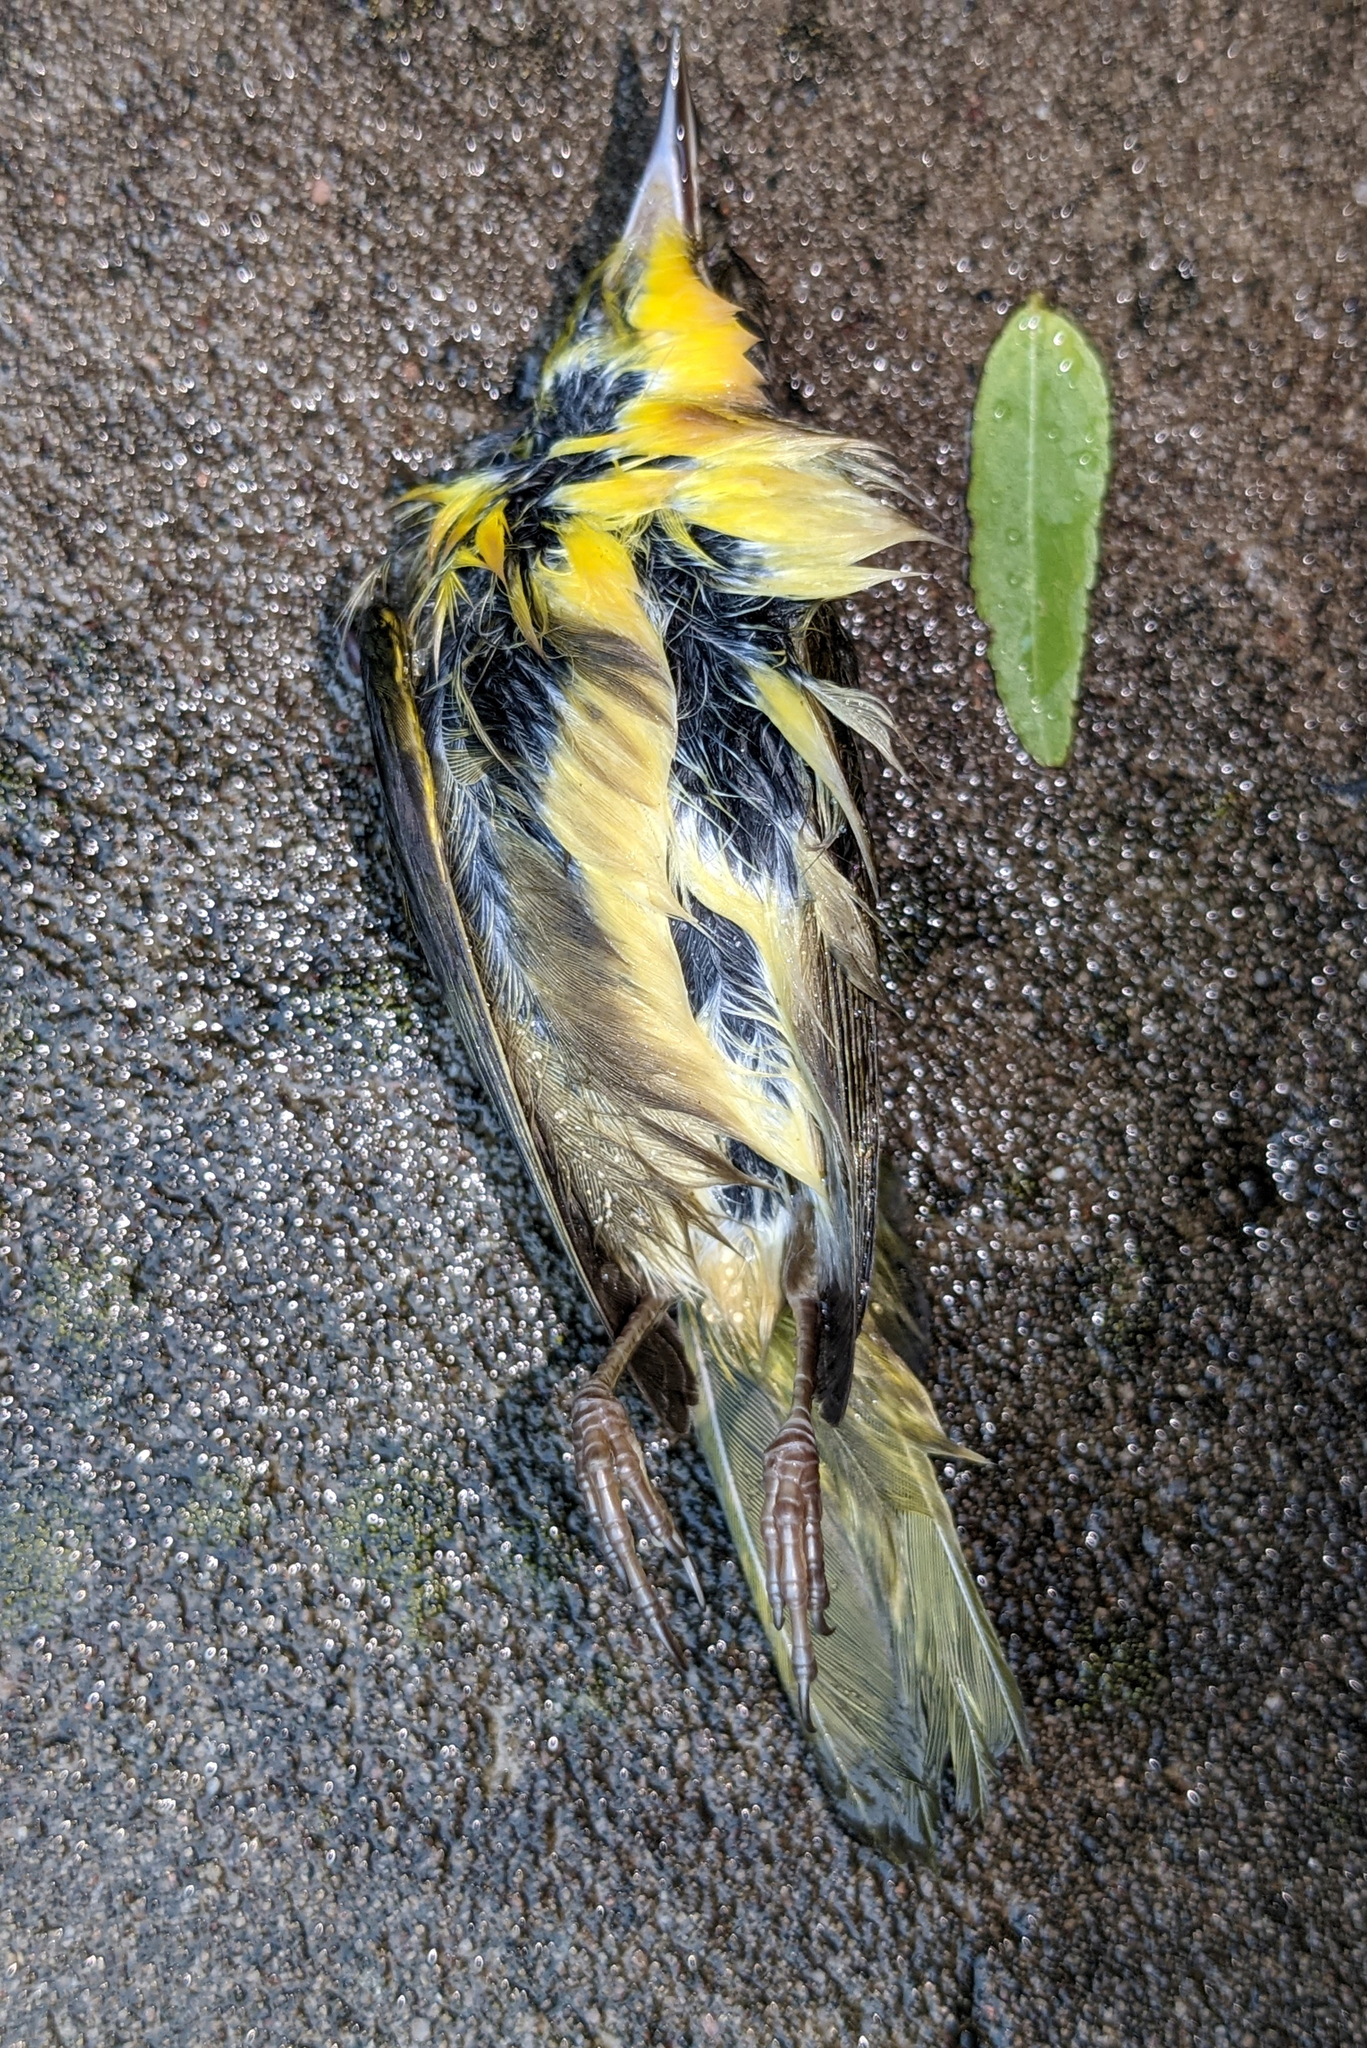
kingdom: Animalia
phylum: Chordata
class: Aves
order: Passeriformes
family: Parulidae
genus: Geothlypis
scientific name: Geothlypis trichas
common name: Common yellowthroat
